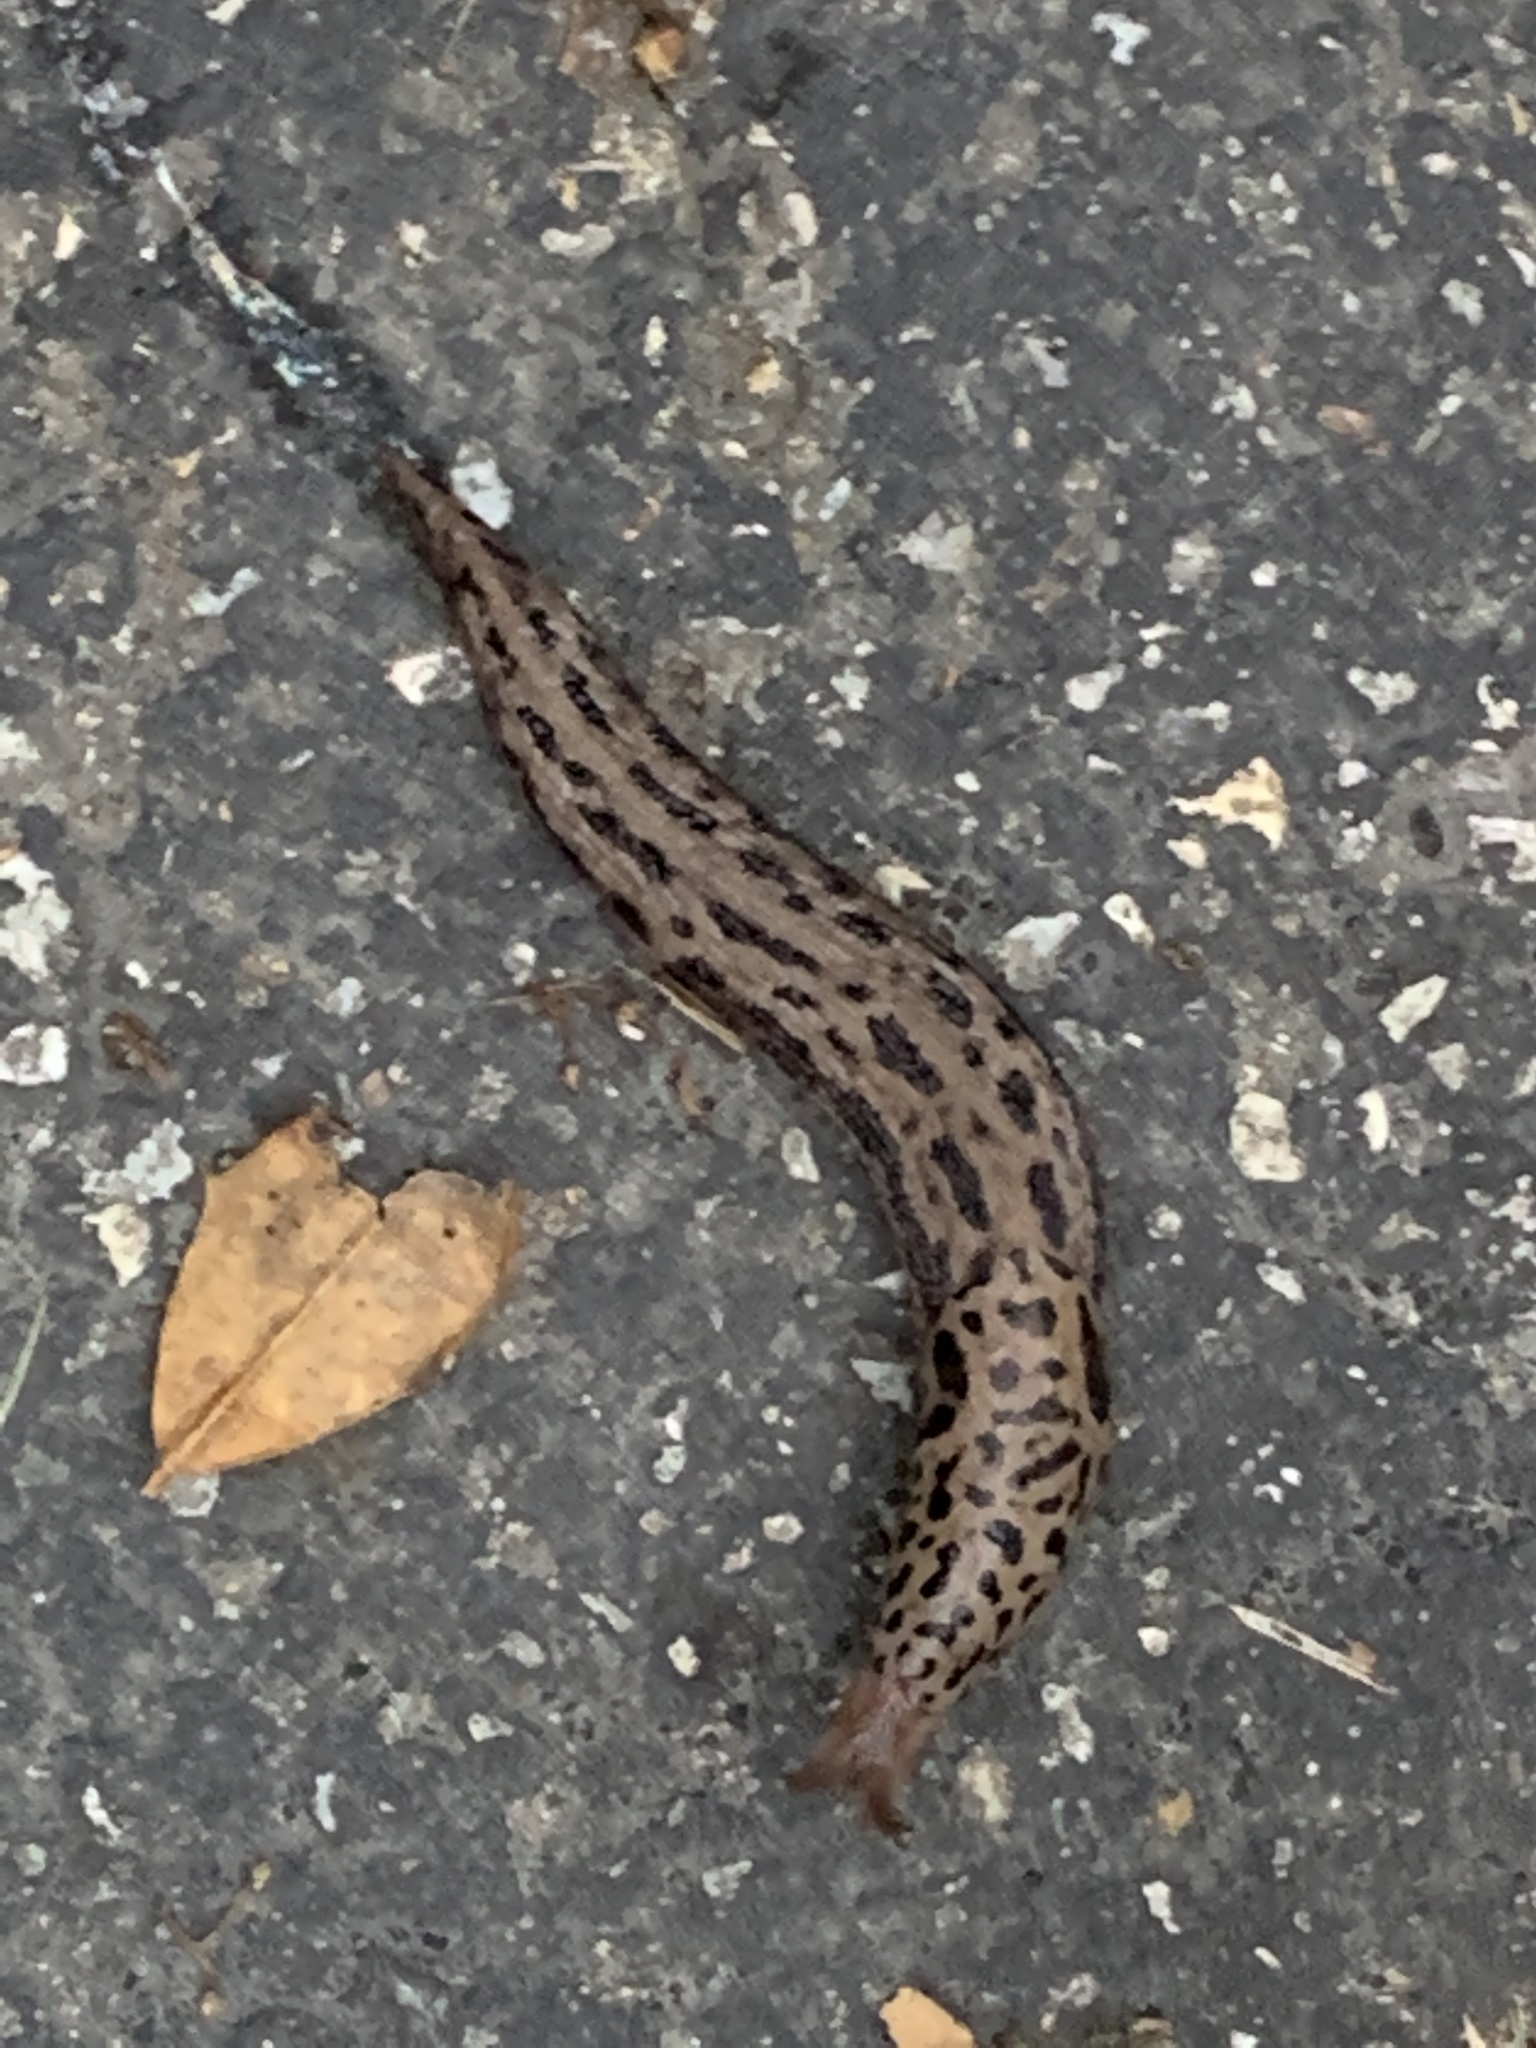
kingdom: Animalia
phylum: Mollusca
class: Gastropoda
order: Stylommatophora
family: Limacidae
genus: Limax
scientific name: Limax maximus
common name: Great grey slug
